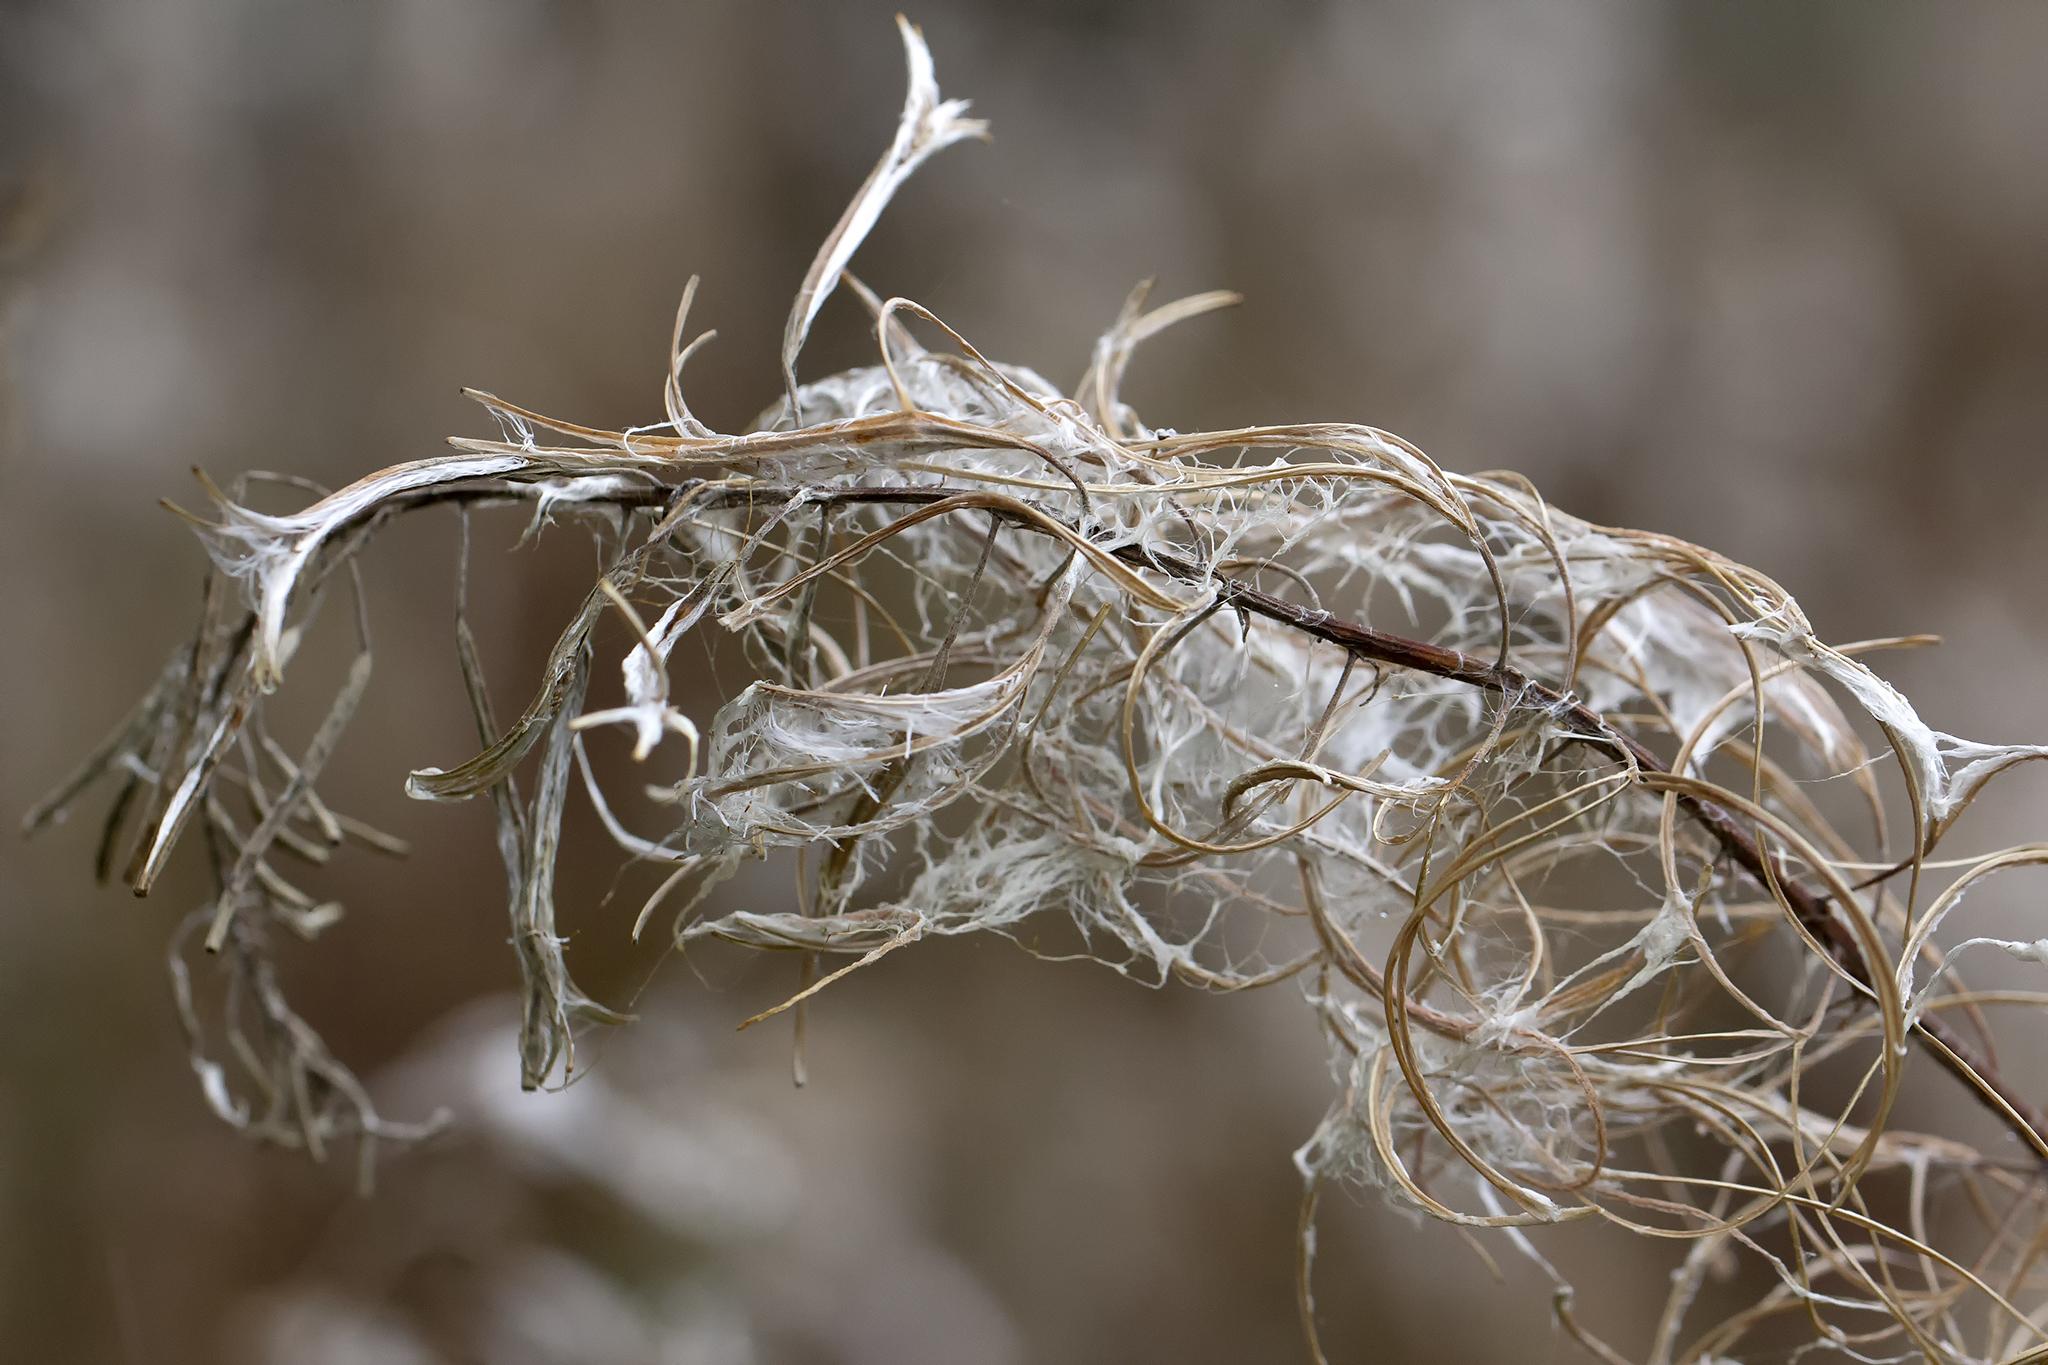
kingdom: Plantae
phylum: Tracheophyta
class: Magnoliopsida
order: Myrtales
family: Onagraceae
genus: Chamaenerion
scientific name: Chamaenerion angustifolium
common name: Fireweed
